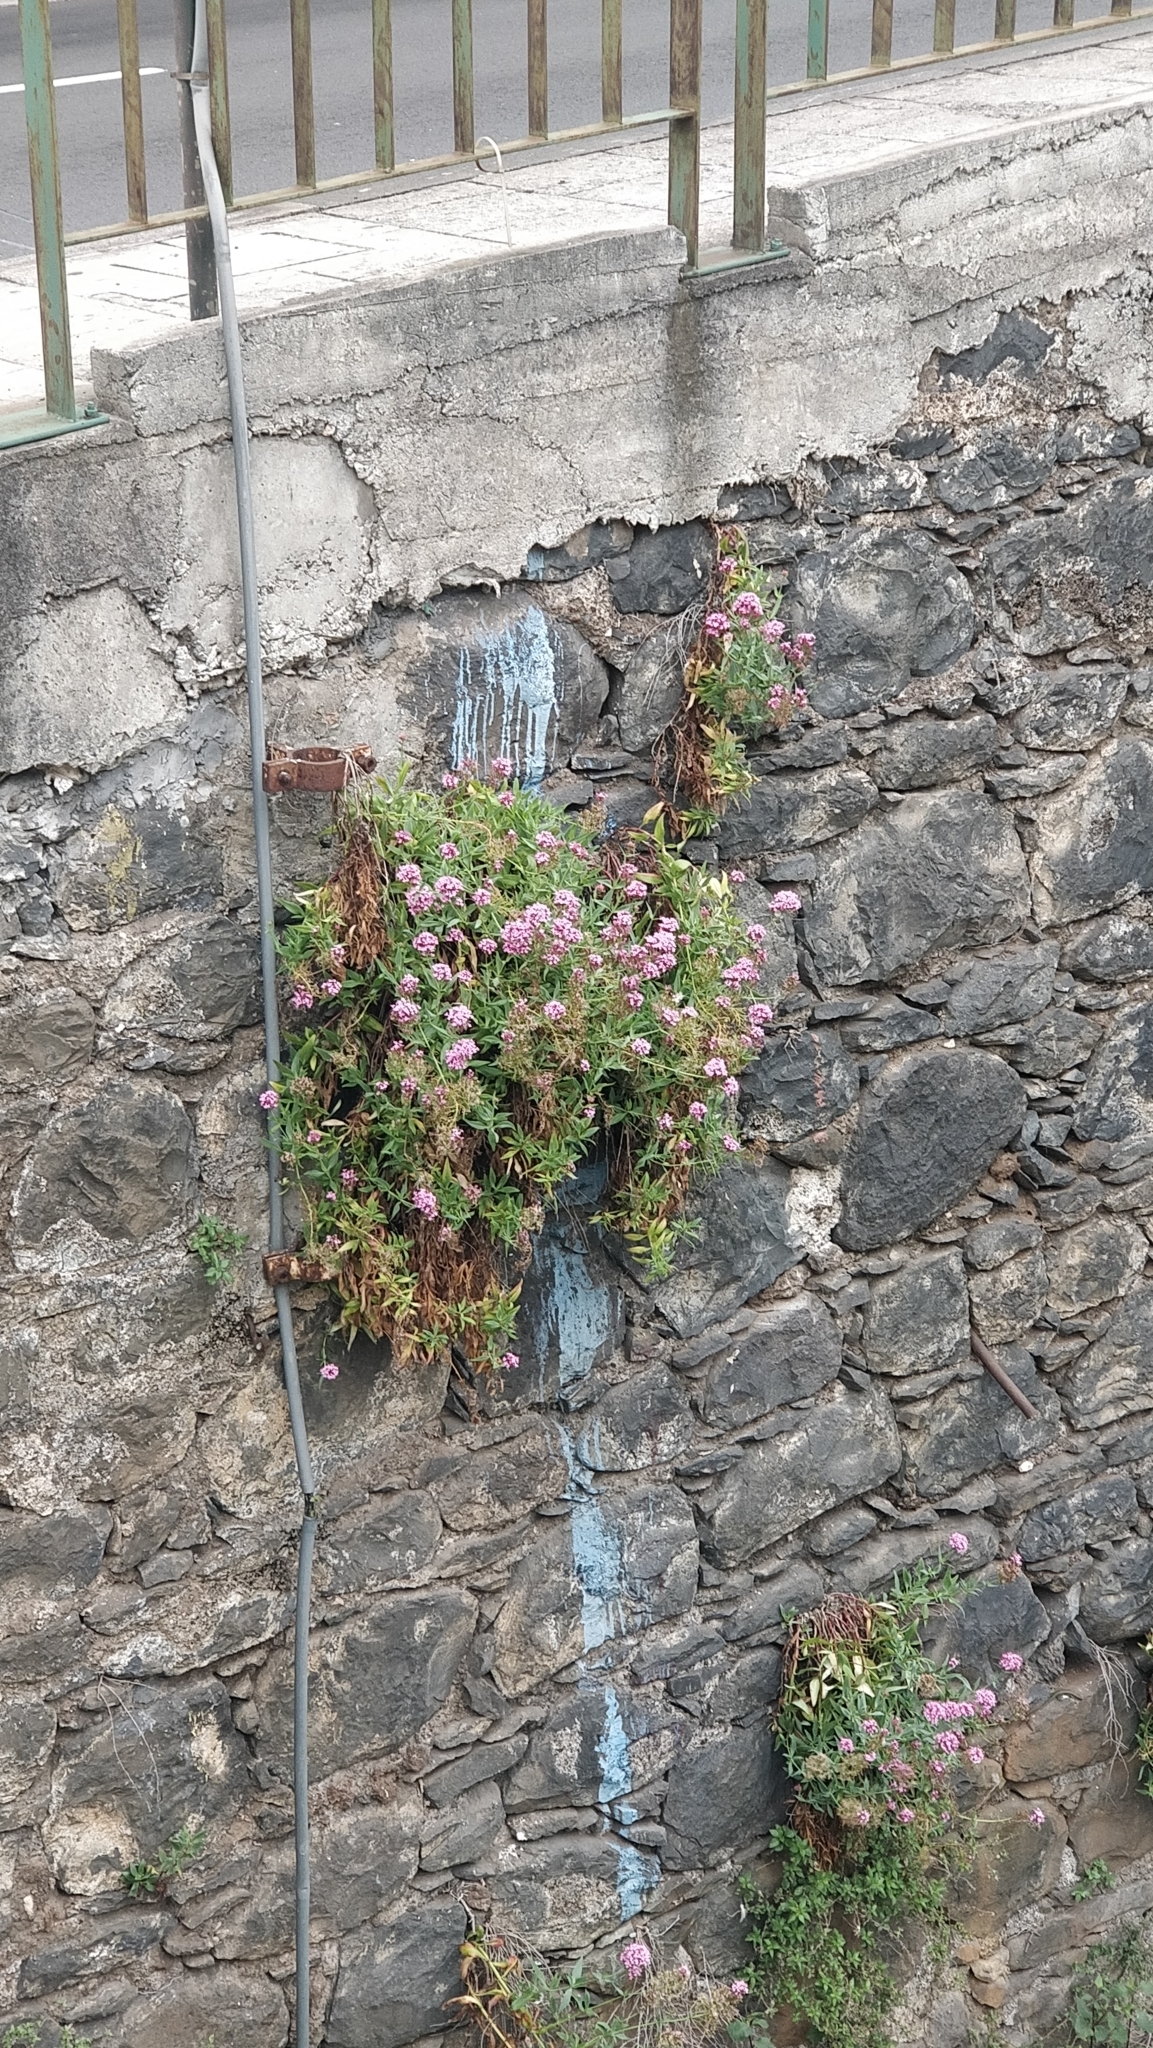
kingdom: Plantae
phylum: Tracheophyta
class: Magnoliopsida
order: Dipsacales
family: Caprifoliaceae
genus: Centranthus
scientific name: Centranthus ruber
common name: Red valerian
